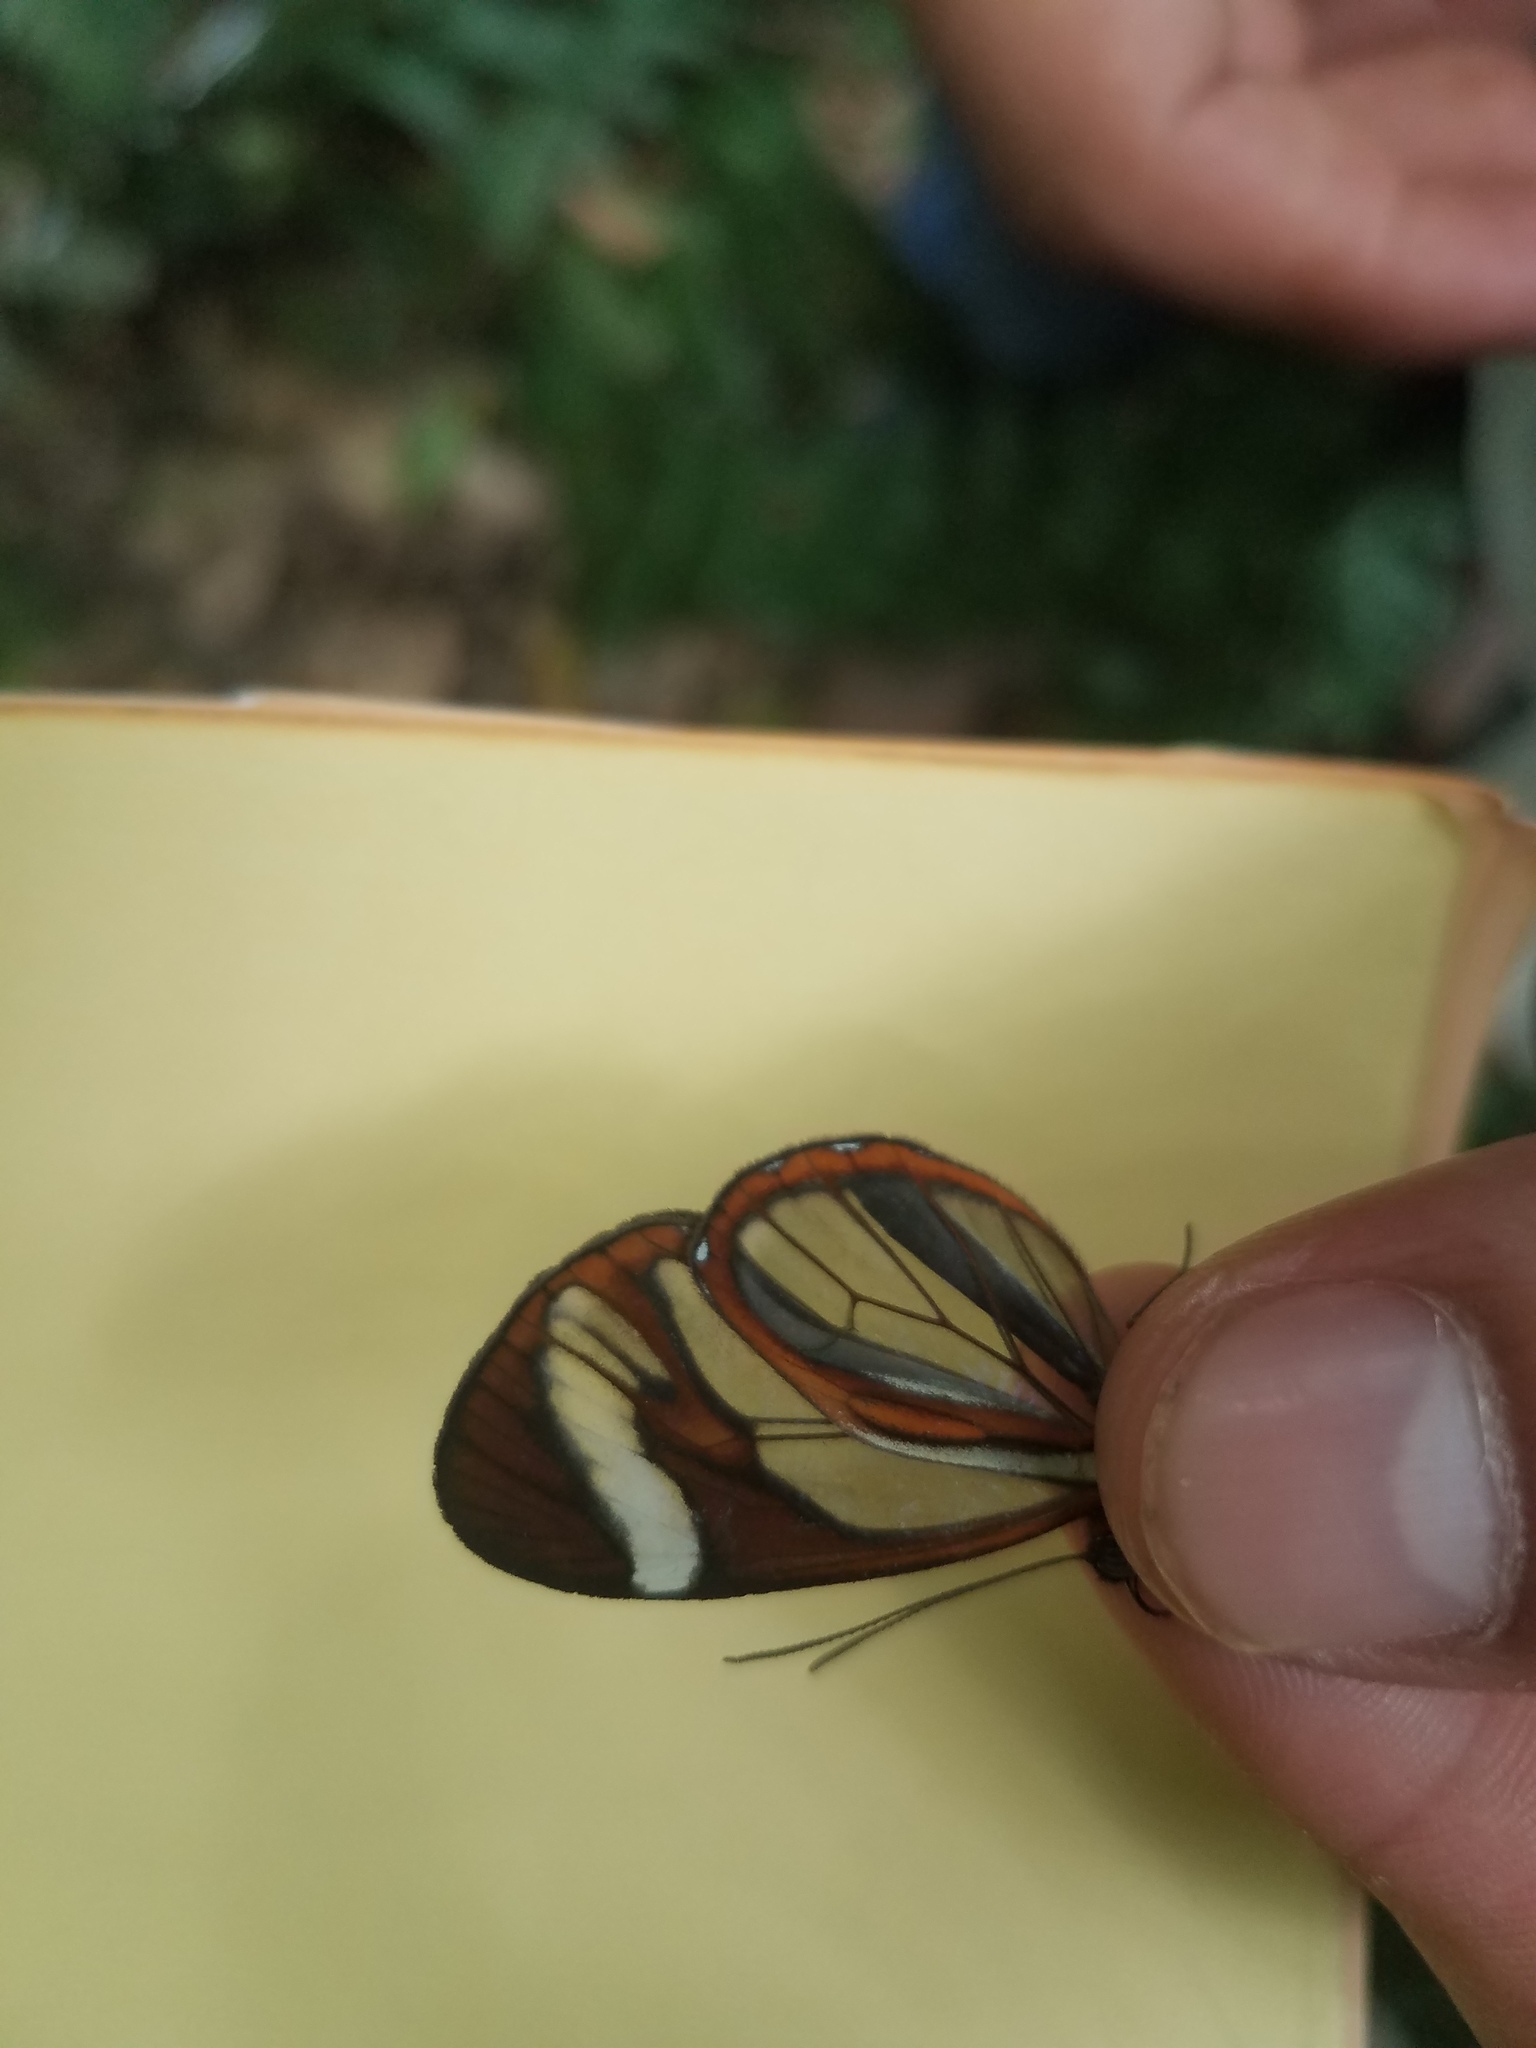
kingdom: Animalia
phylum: Arthropoda
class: Insecta
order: Lepidoptera
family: Nymphalidae
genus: Ithomia
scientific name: Ithomia patilla
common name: Patilla clearwing
